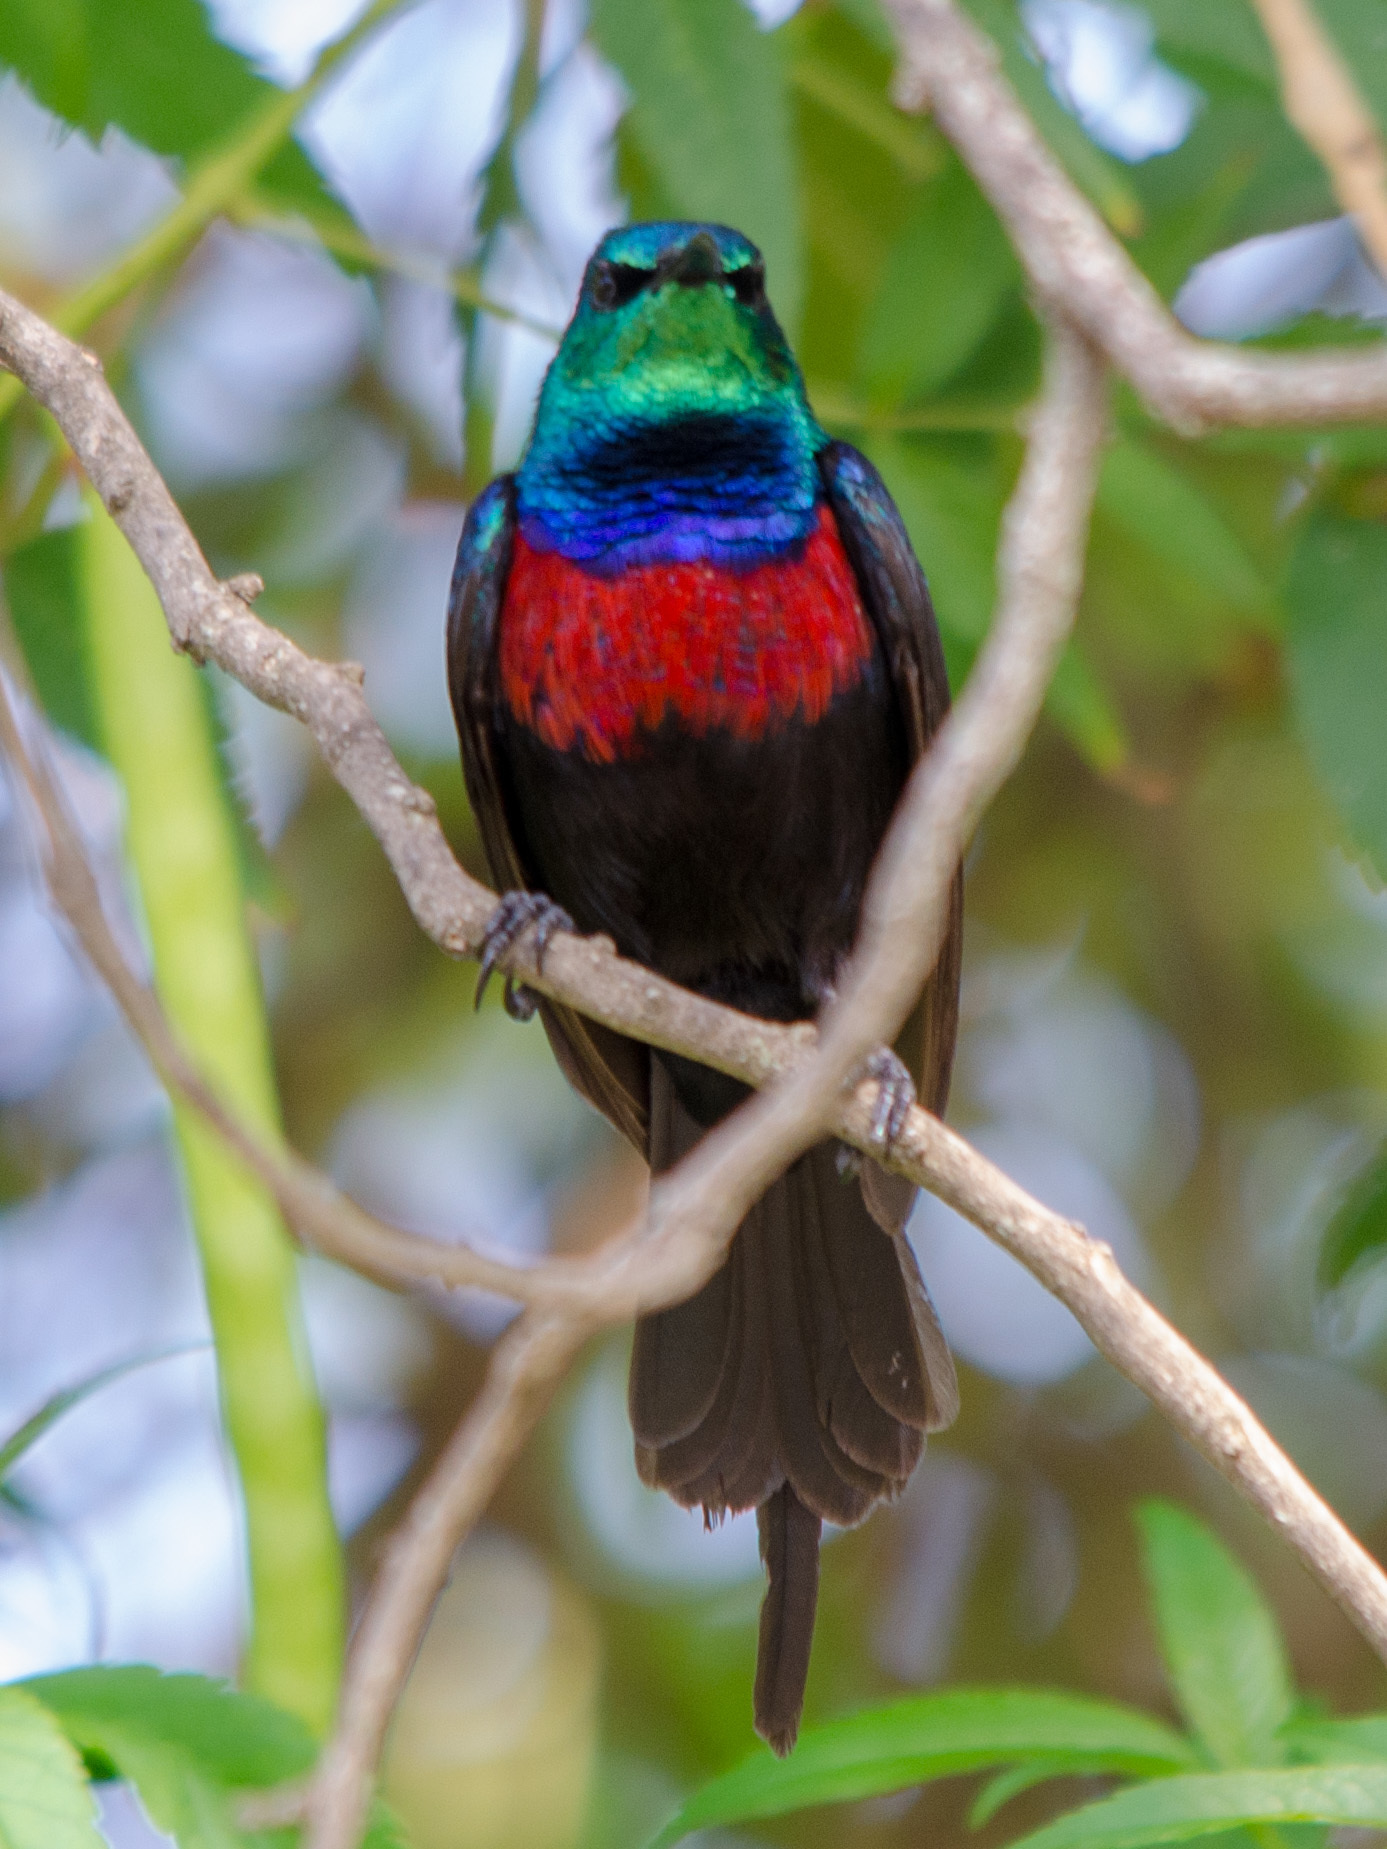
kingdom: Animalia
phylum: Chordata
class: Aves
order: Passeriformes
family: Nectariniidae
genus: Cinnyris
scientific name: Cinnyris erythrocercus
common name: Red-chested sunbird
